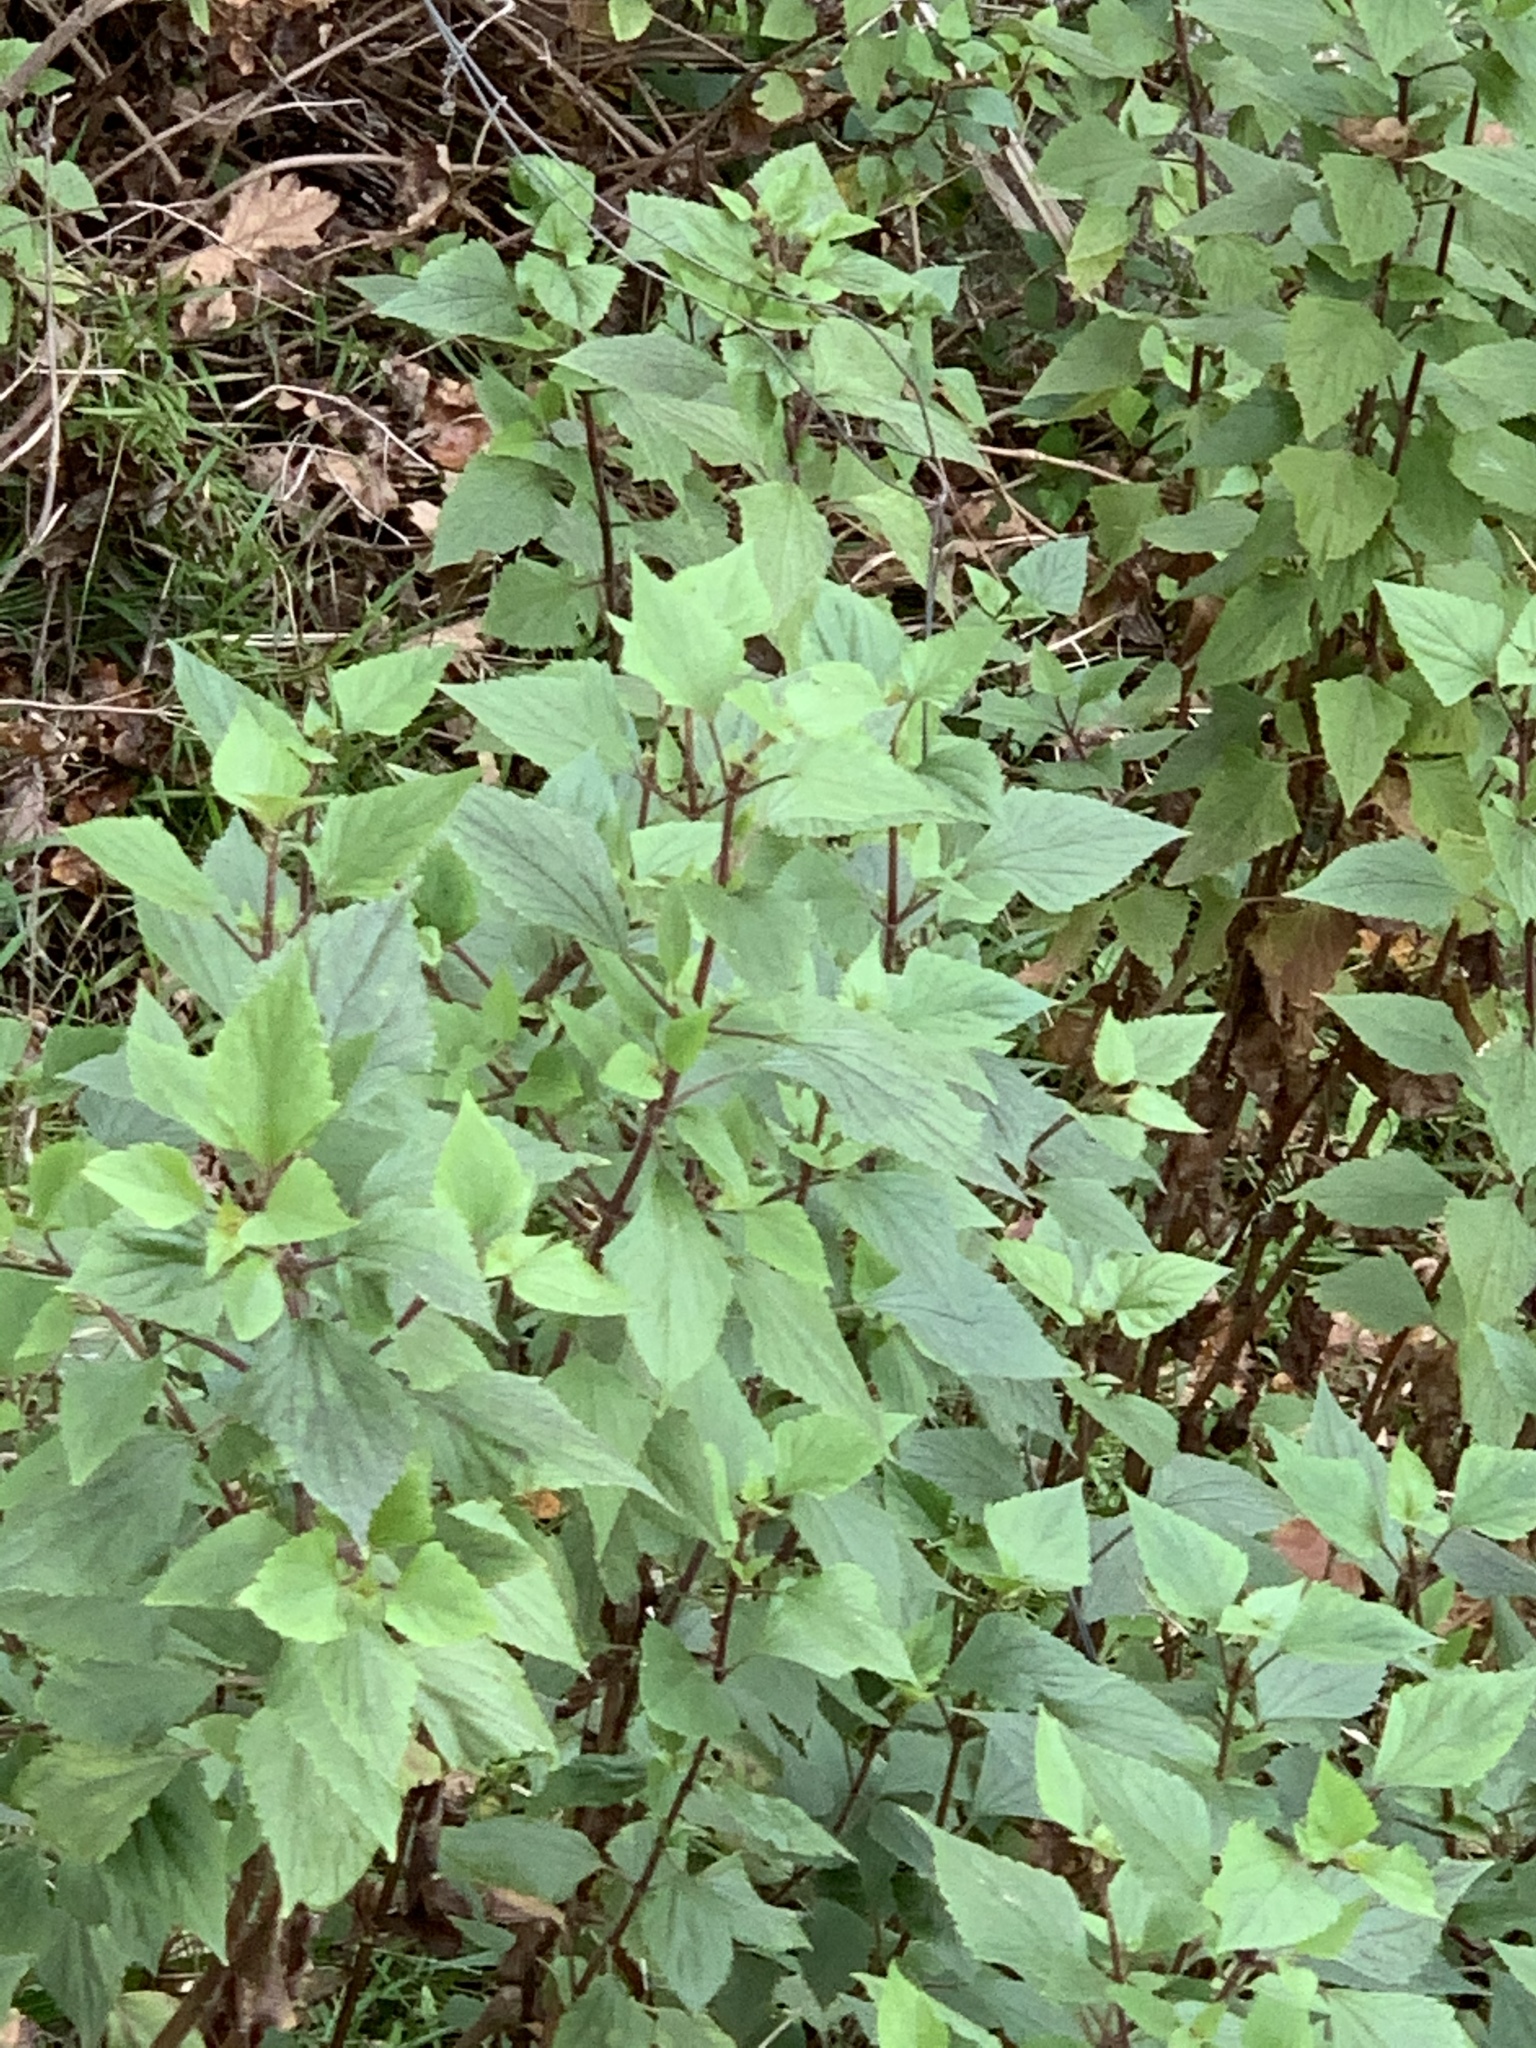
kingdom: Plantae
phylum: Tracheophyta
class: Magnoliopsida
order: Asterales
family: Asteraceae
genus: Ageratina
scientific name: Ageratina adenophora
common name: Sticky snakeroot
